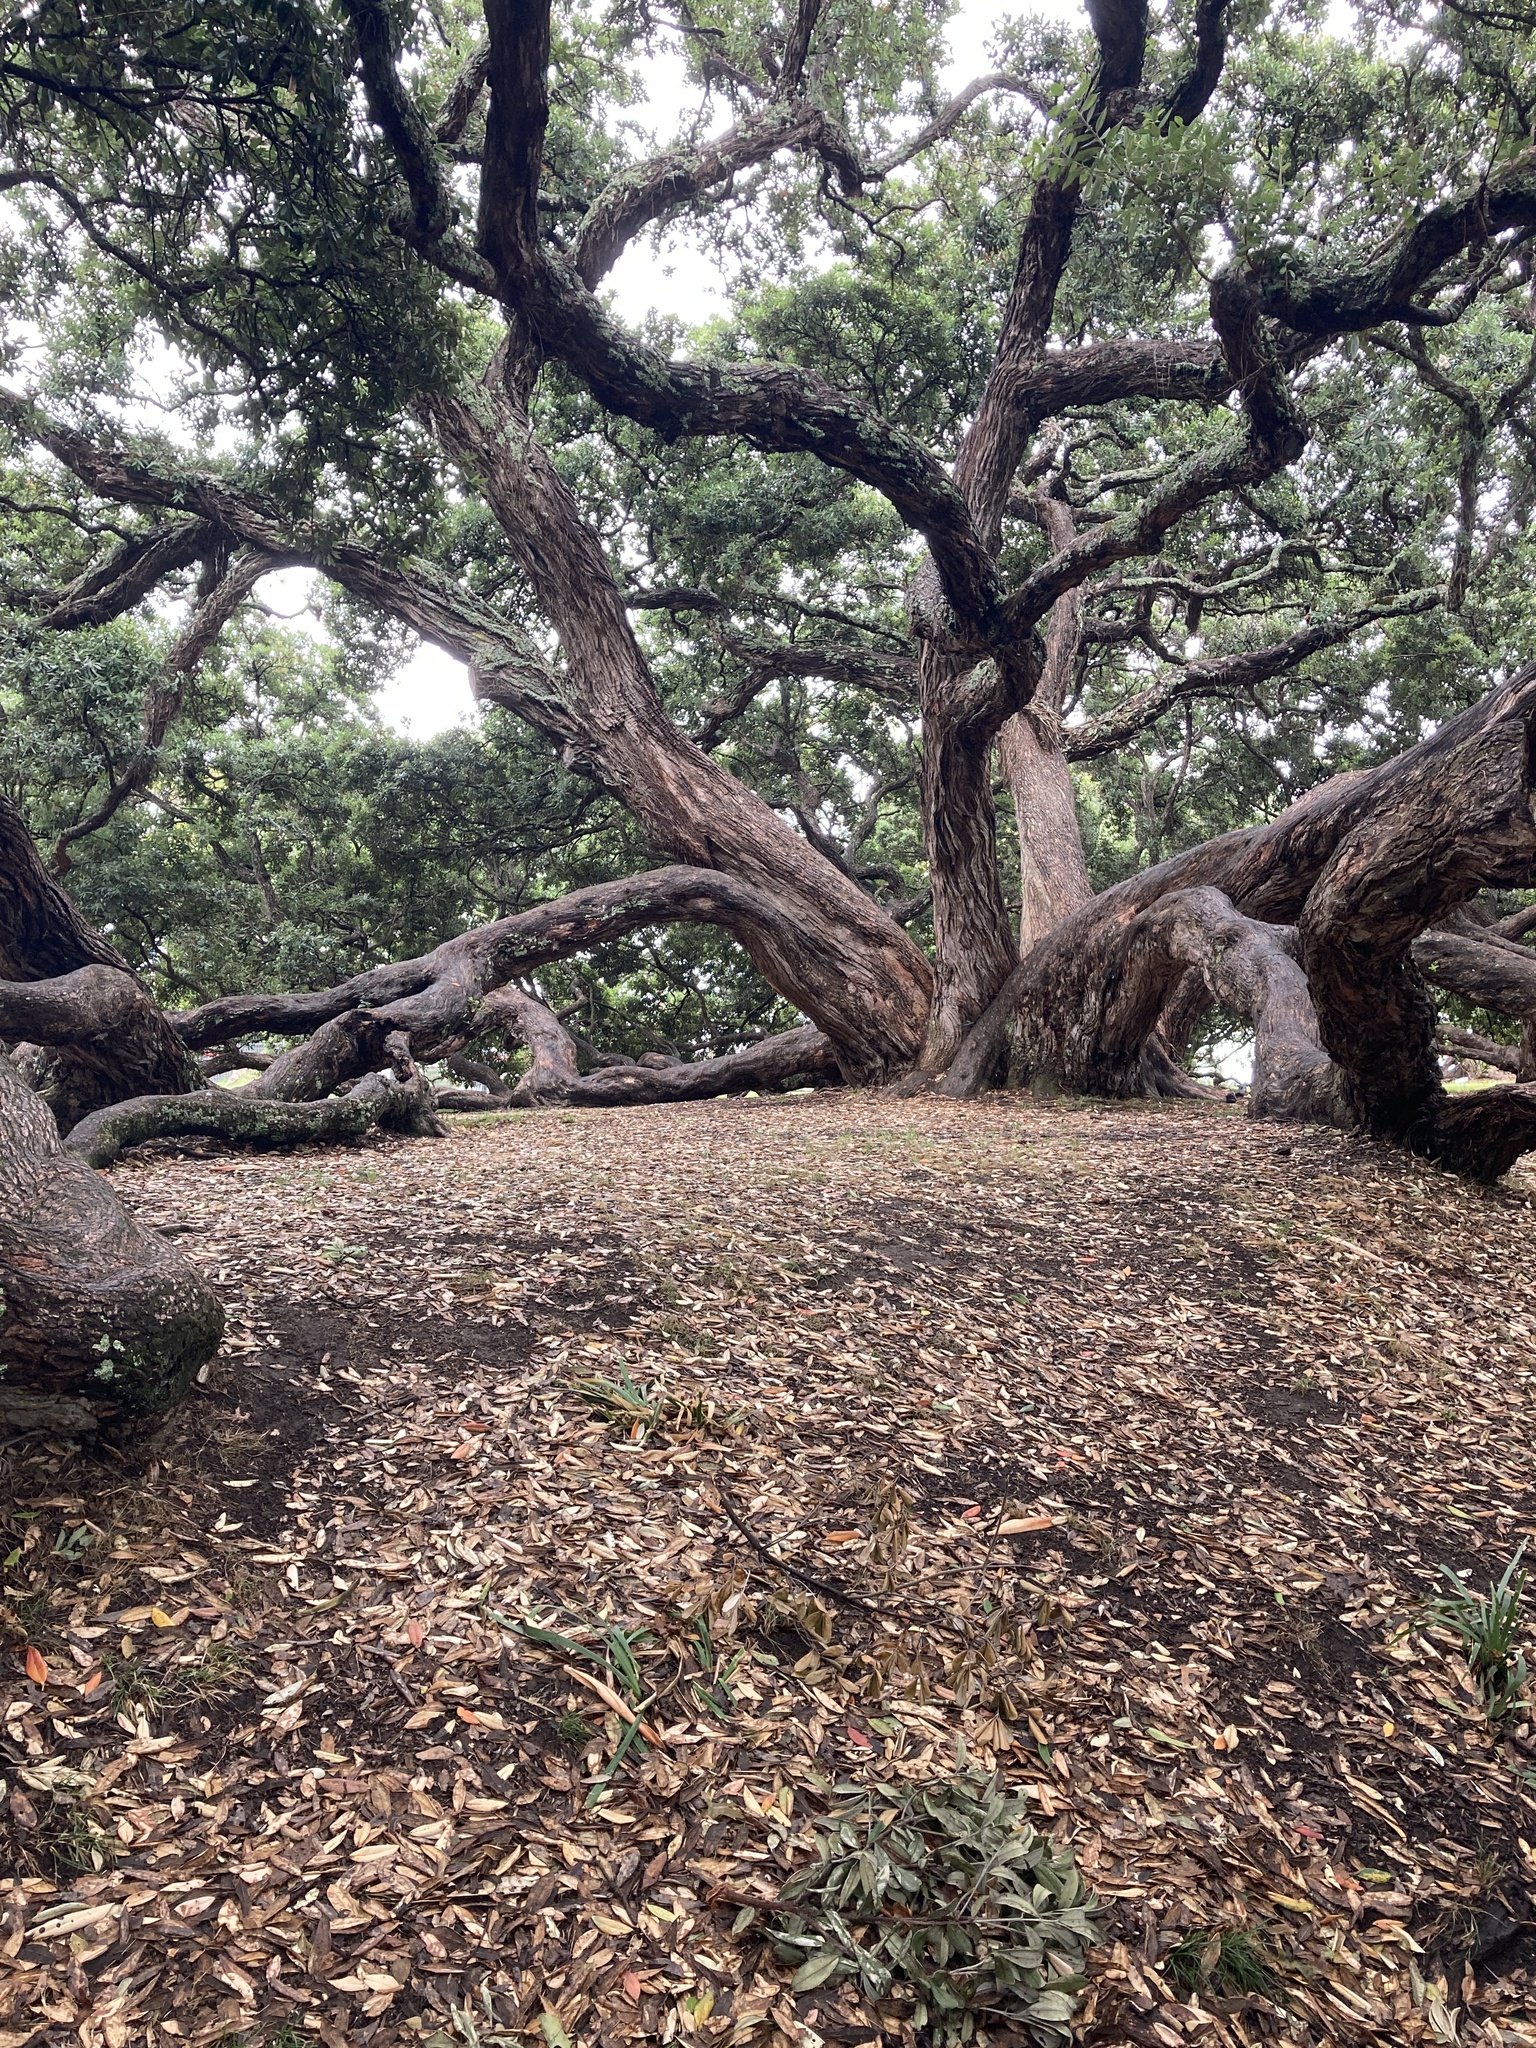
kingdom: Plantae
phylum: Tracheophyta
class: Magnoliopsida
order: Myrtales
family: Myrtaceae
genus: Metrosideros
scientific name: Metrosideros excelsa
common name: New zealand christmastree
